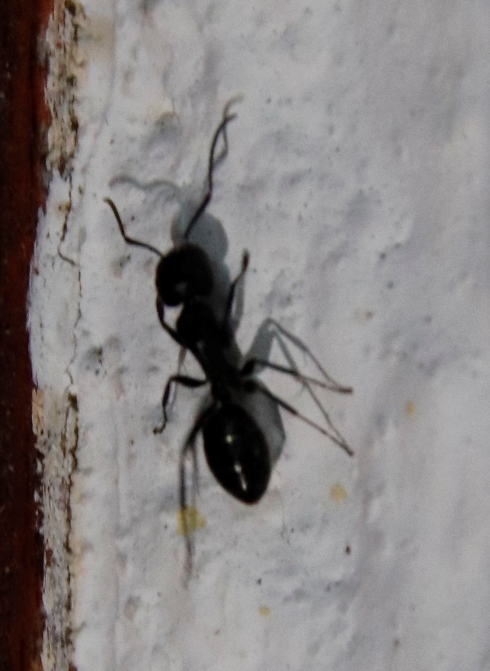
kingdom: Animalia
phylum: Arthropoda
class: Insecta
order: Hymenoptera
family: Formicidae
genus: Camponotus
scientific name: Camponotus werthi
